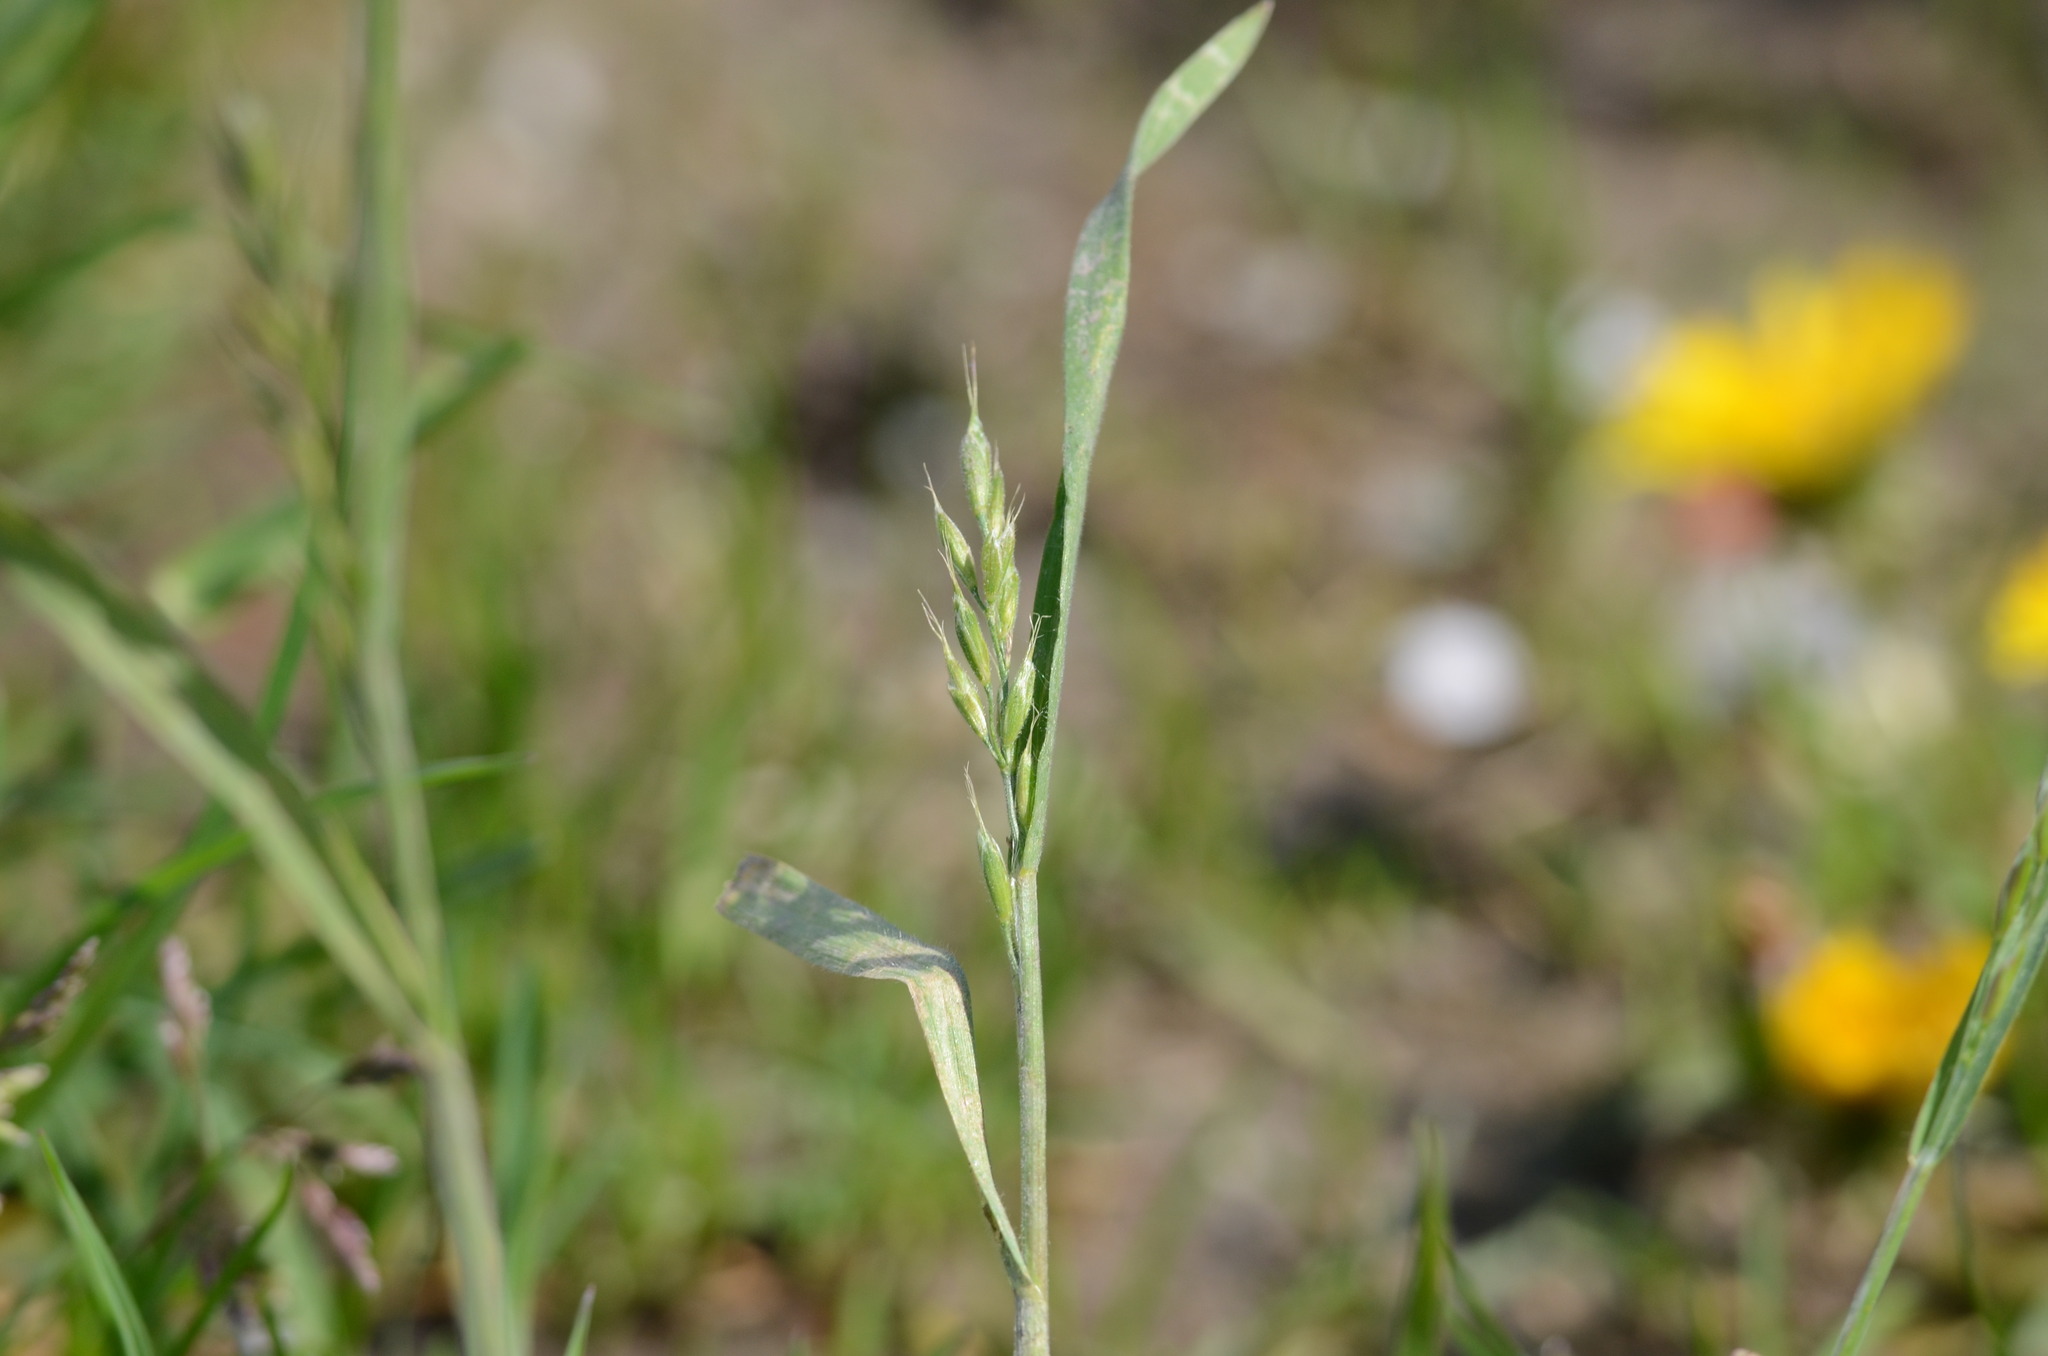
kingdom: Plantae
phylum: Tracheophyta
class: Liliopsida
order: Poales
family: Poaceae
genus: Bromus
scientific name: Bromus hordeaceus
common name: Soft brome
